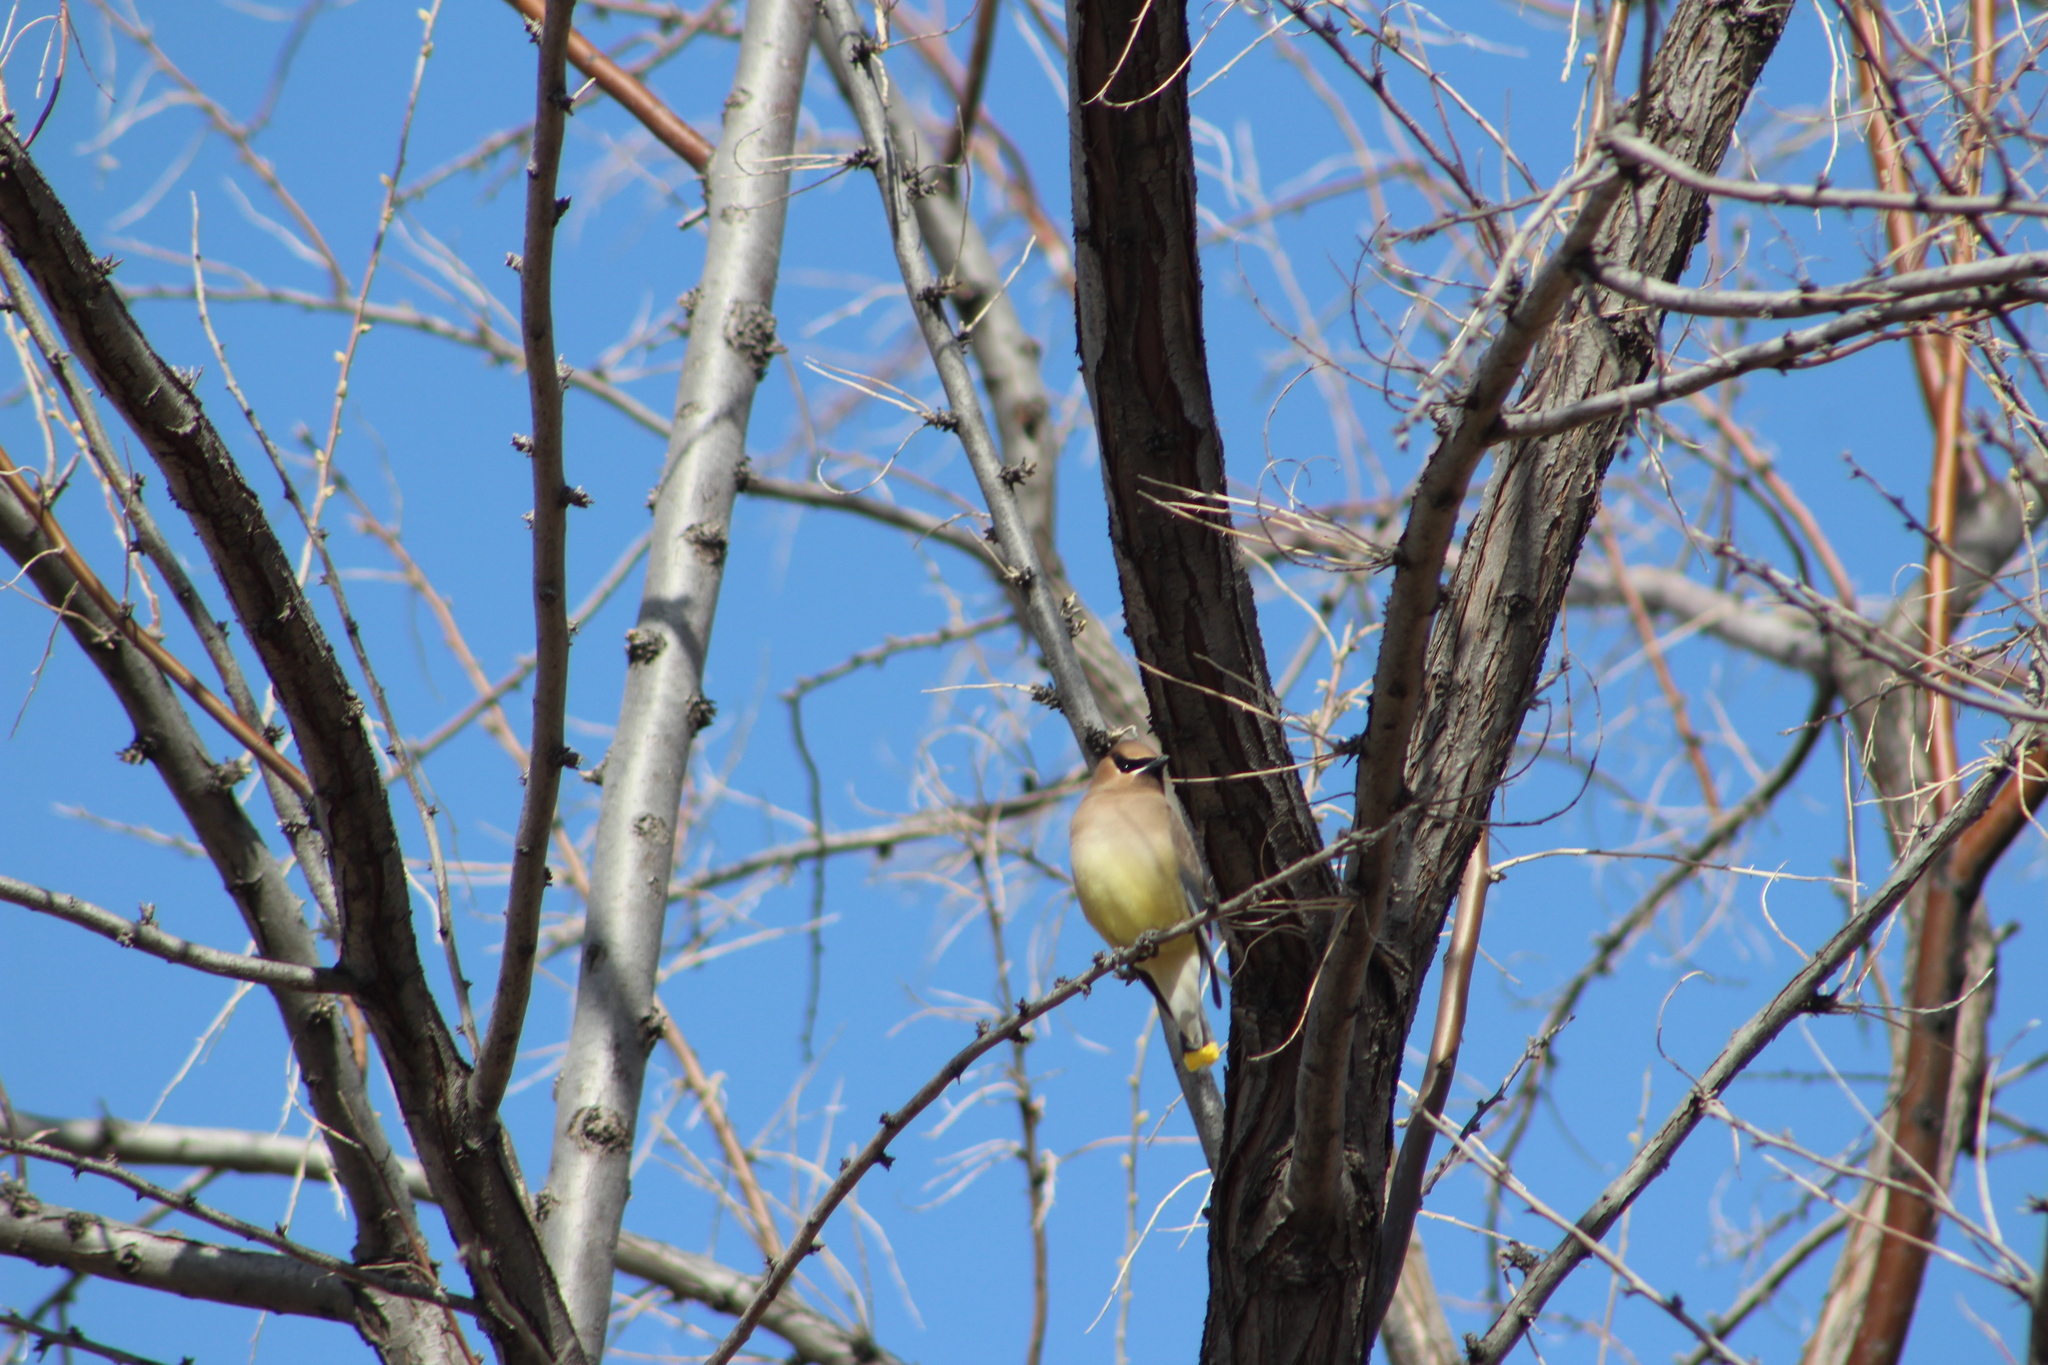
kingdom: Animalia
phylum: Chordata
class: Aves
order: Passeriformes
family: Bombycillidae
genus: Bombycilla
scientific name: Bombycilla cedrorum
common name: Cedar waxwing
